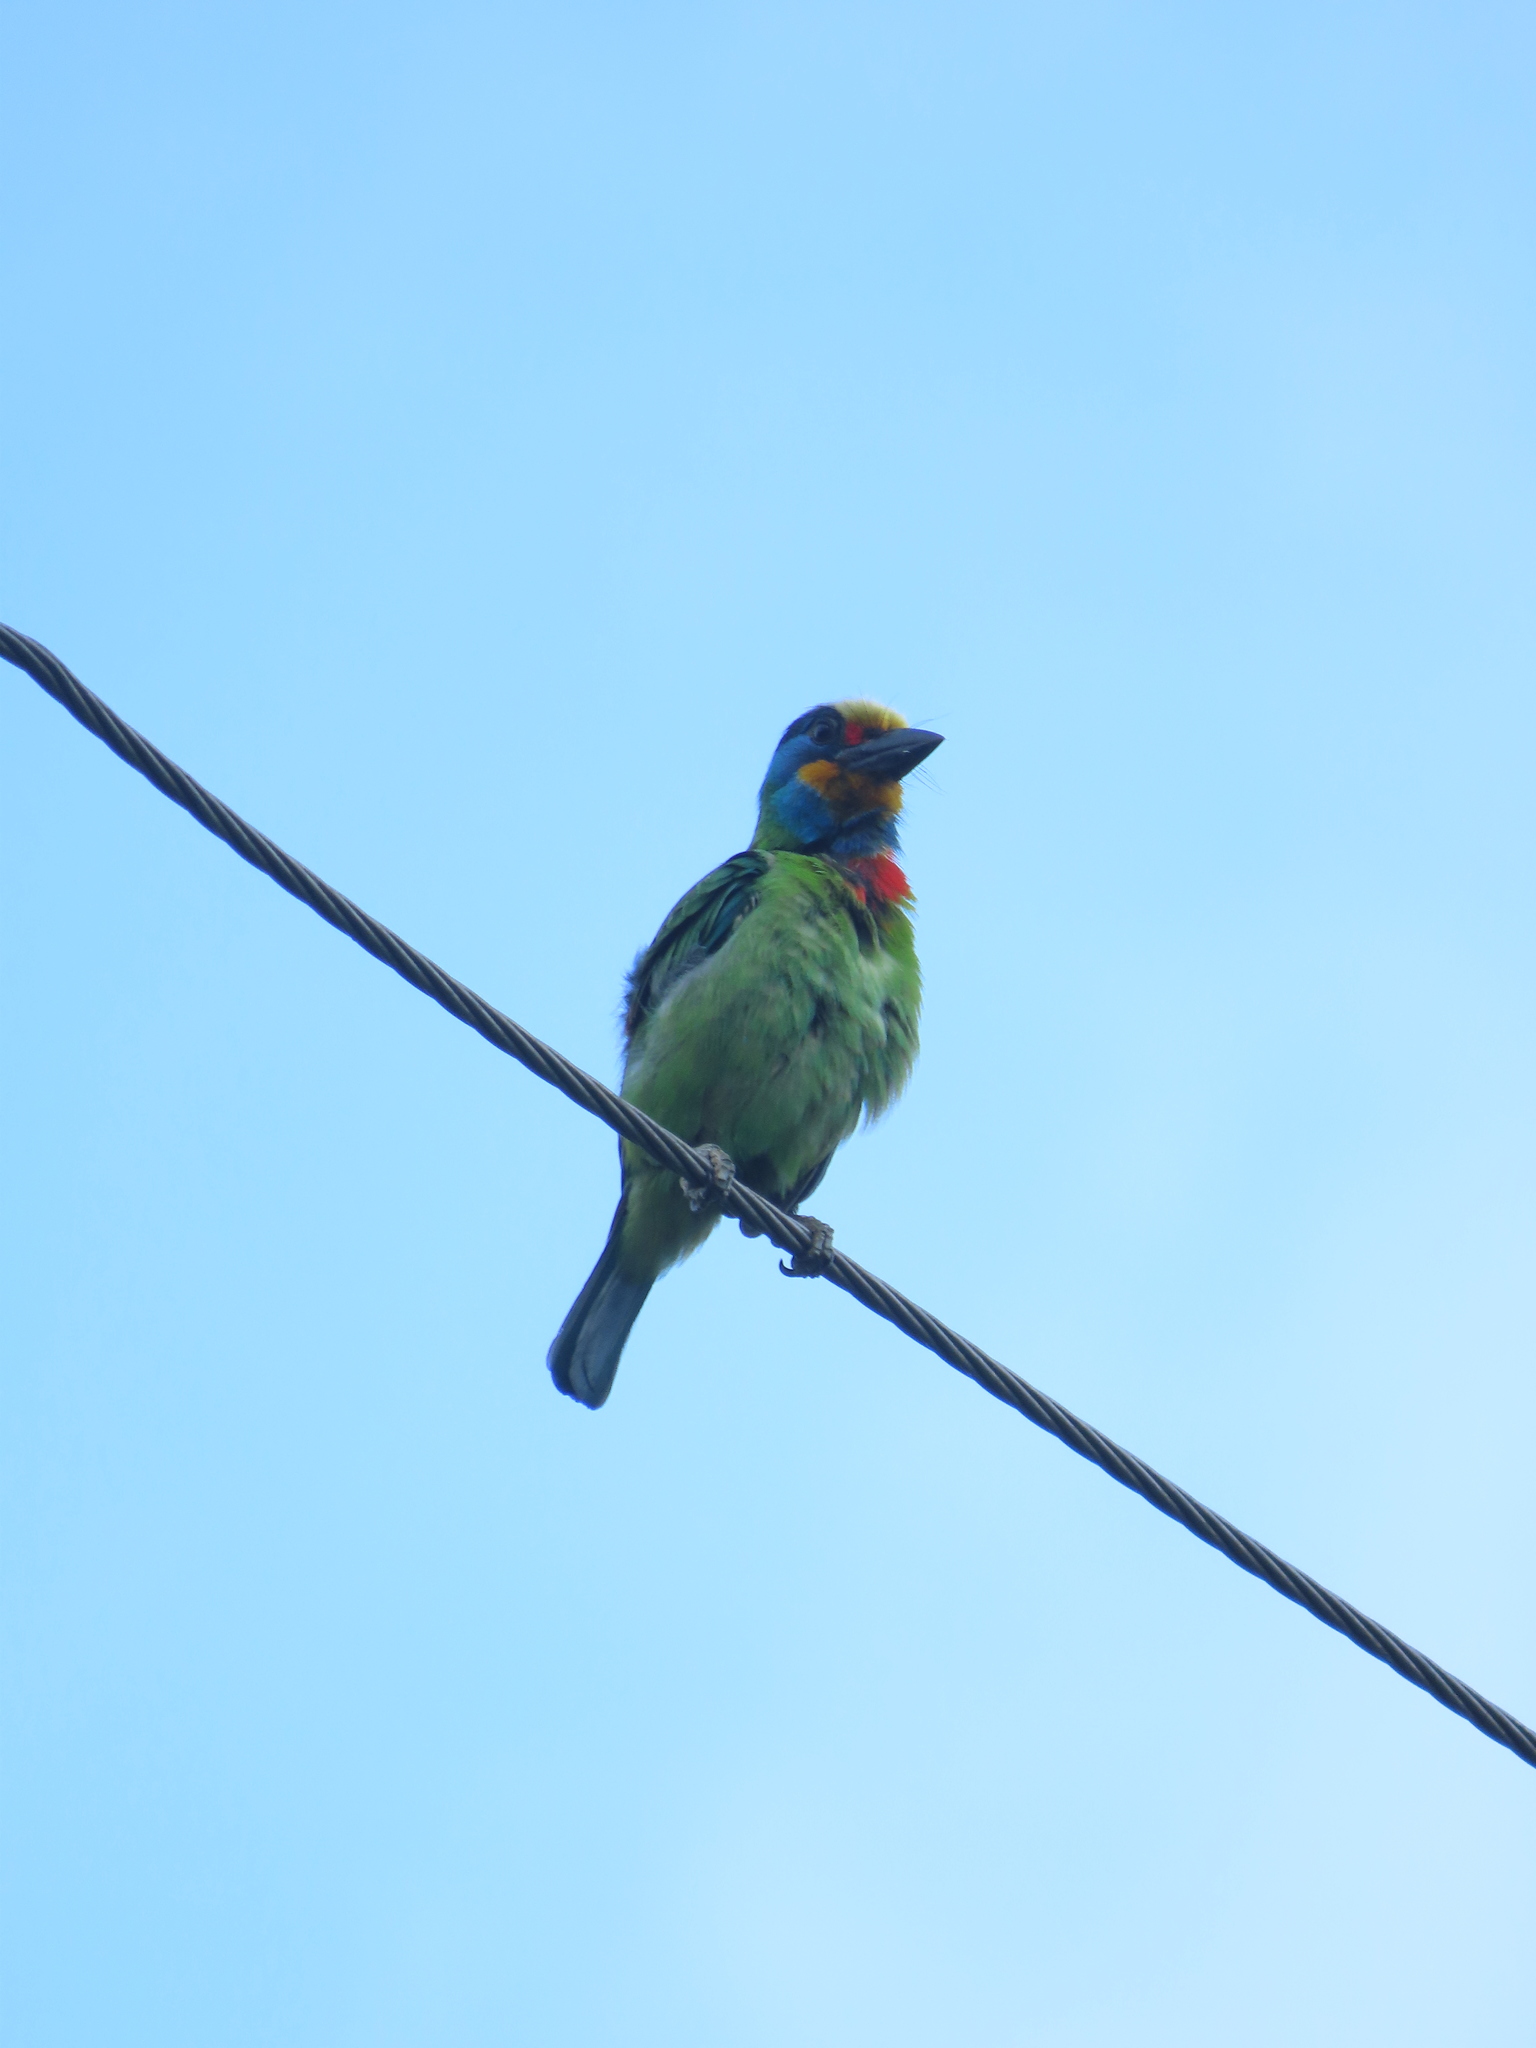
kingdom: Animalia
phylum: Chordata
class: Aves
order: Piciformes
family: Megalaimidae
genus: Psilopogon
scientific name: Psilopogon nuchalis
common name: Taiwan barbet
